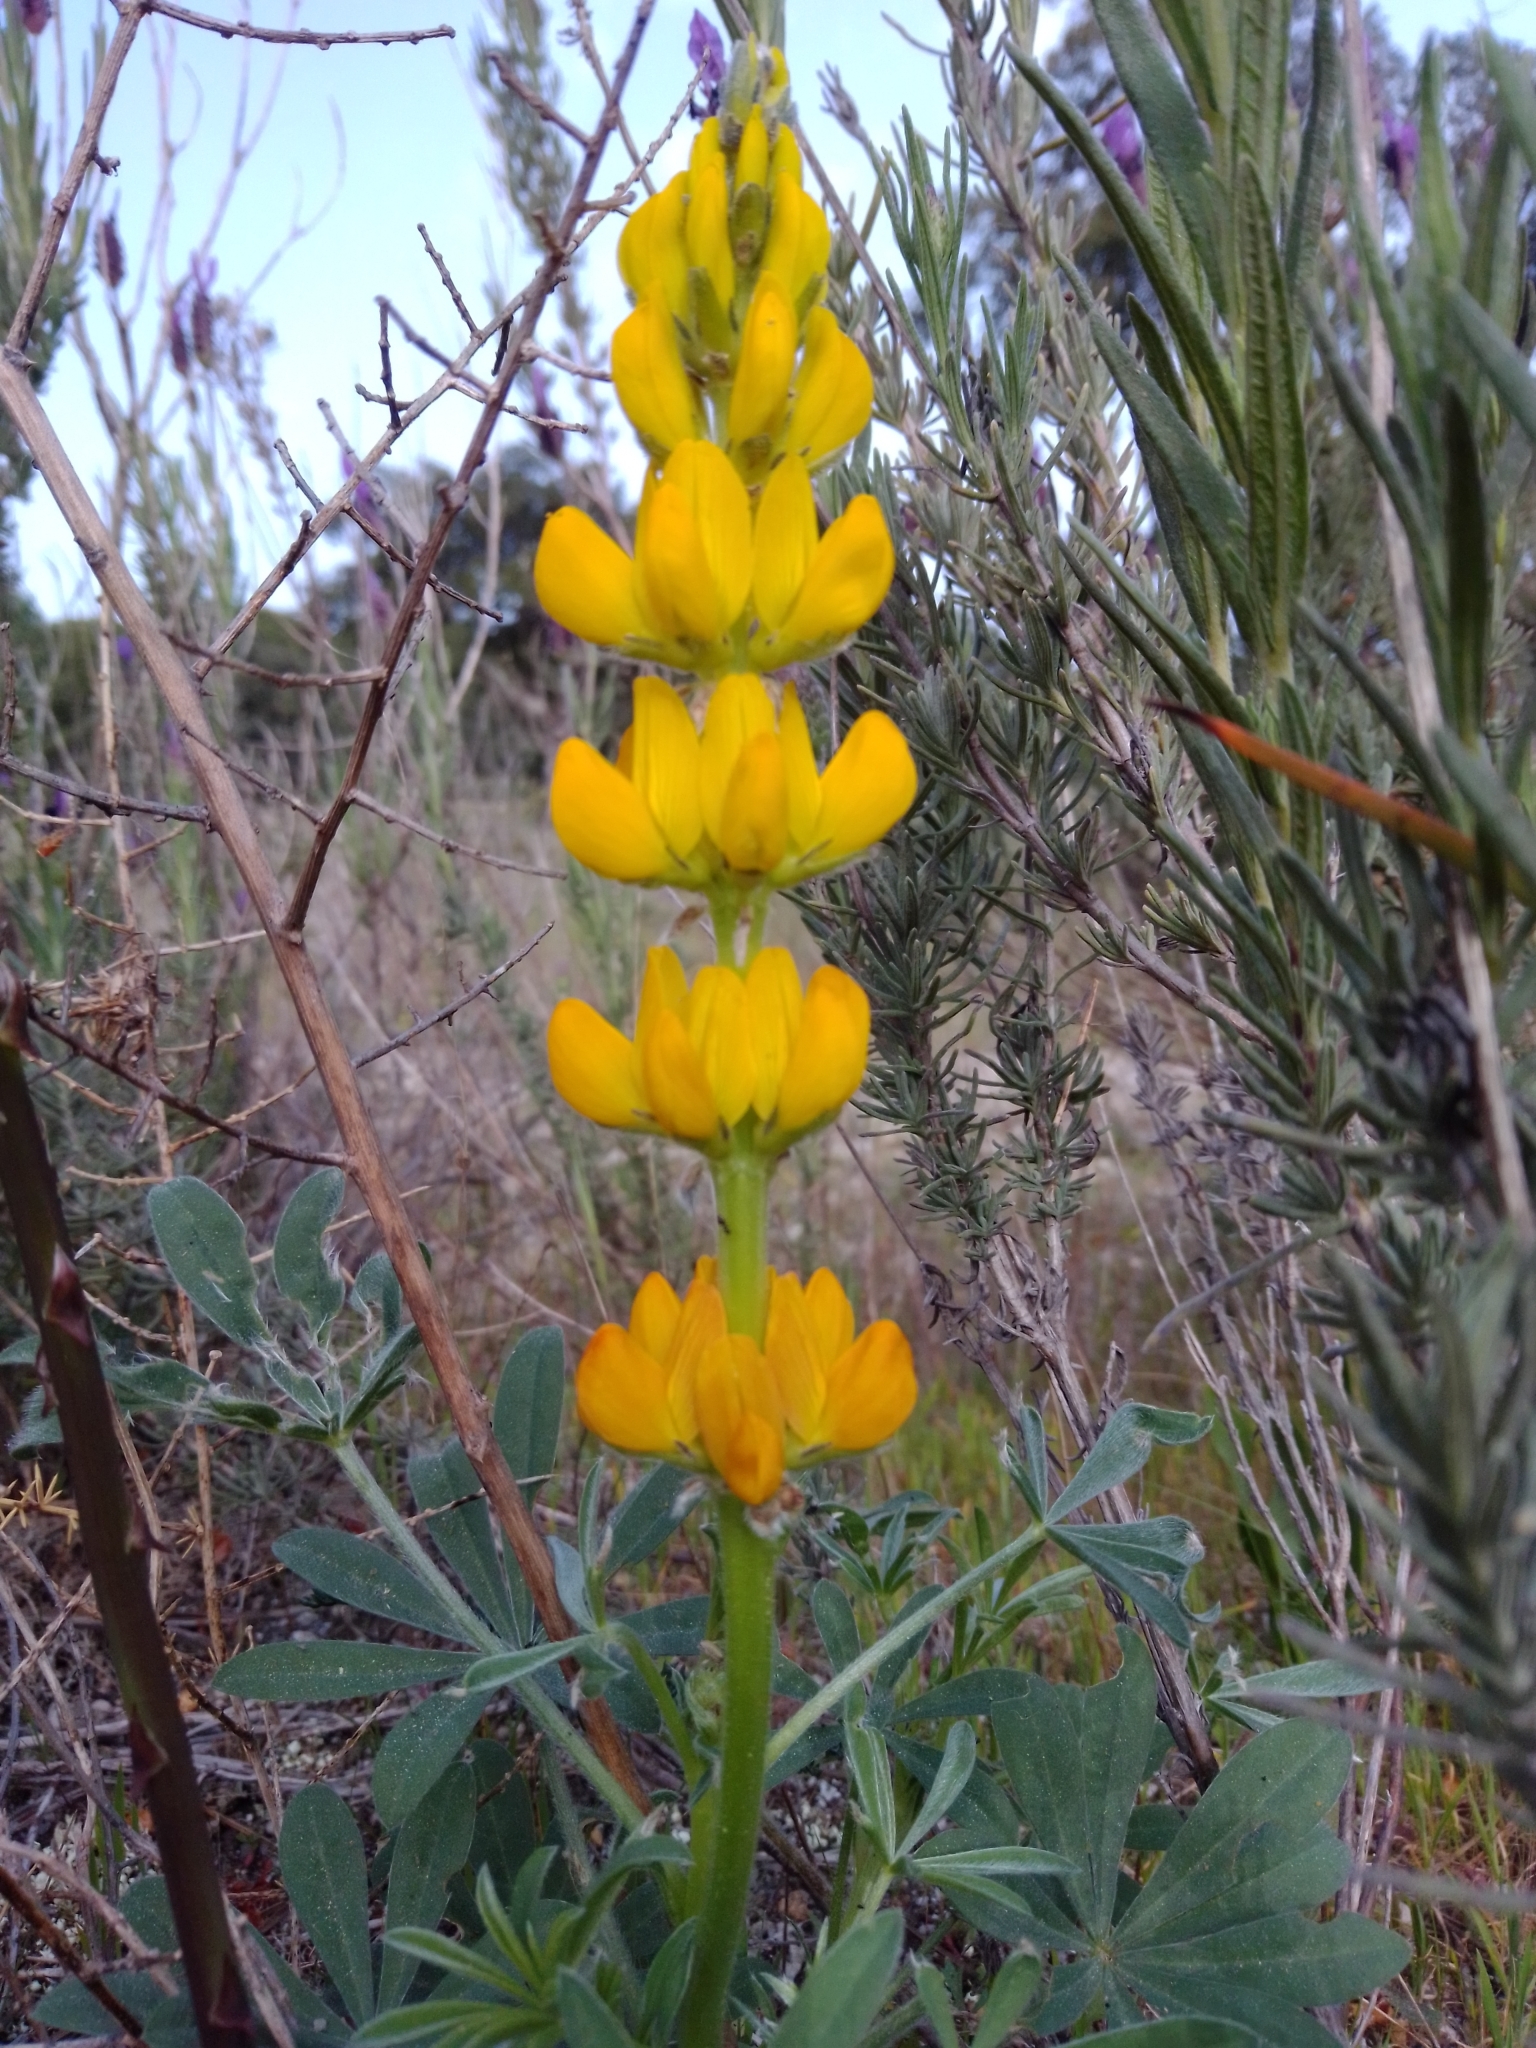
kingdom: Plantae
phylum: Tracheophyta
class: Magnoliopsida
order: Fabales
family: Fabaceae
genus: Lupinus
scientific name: Lupinus luteus
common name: European yellow lupine
